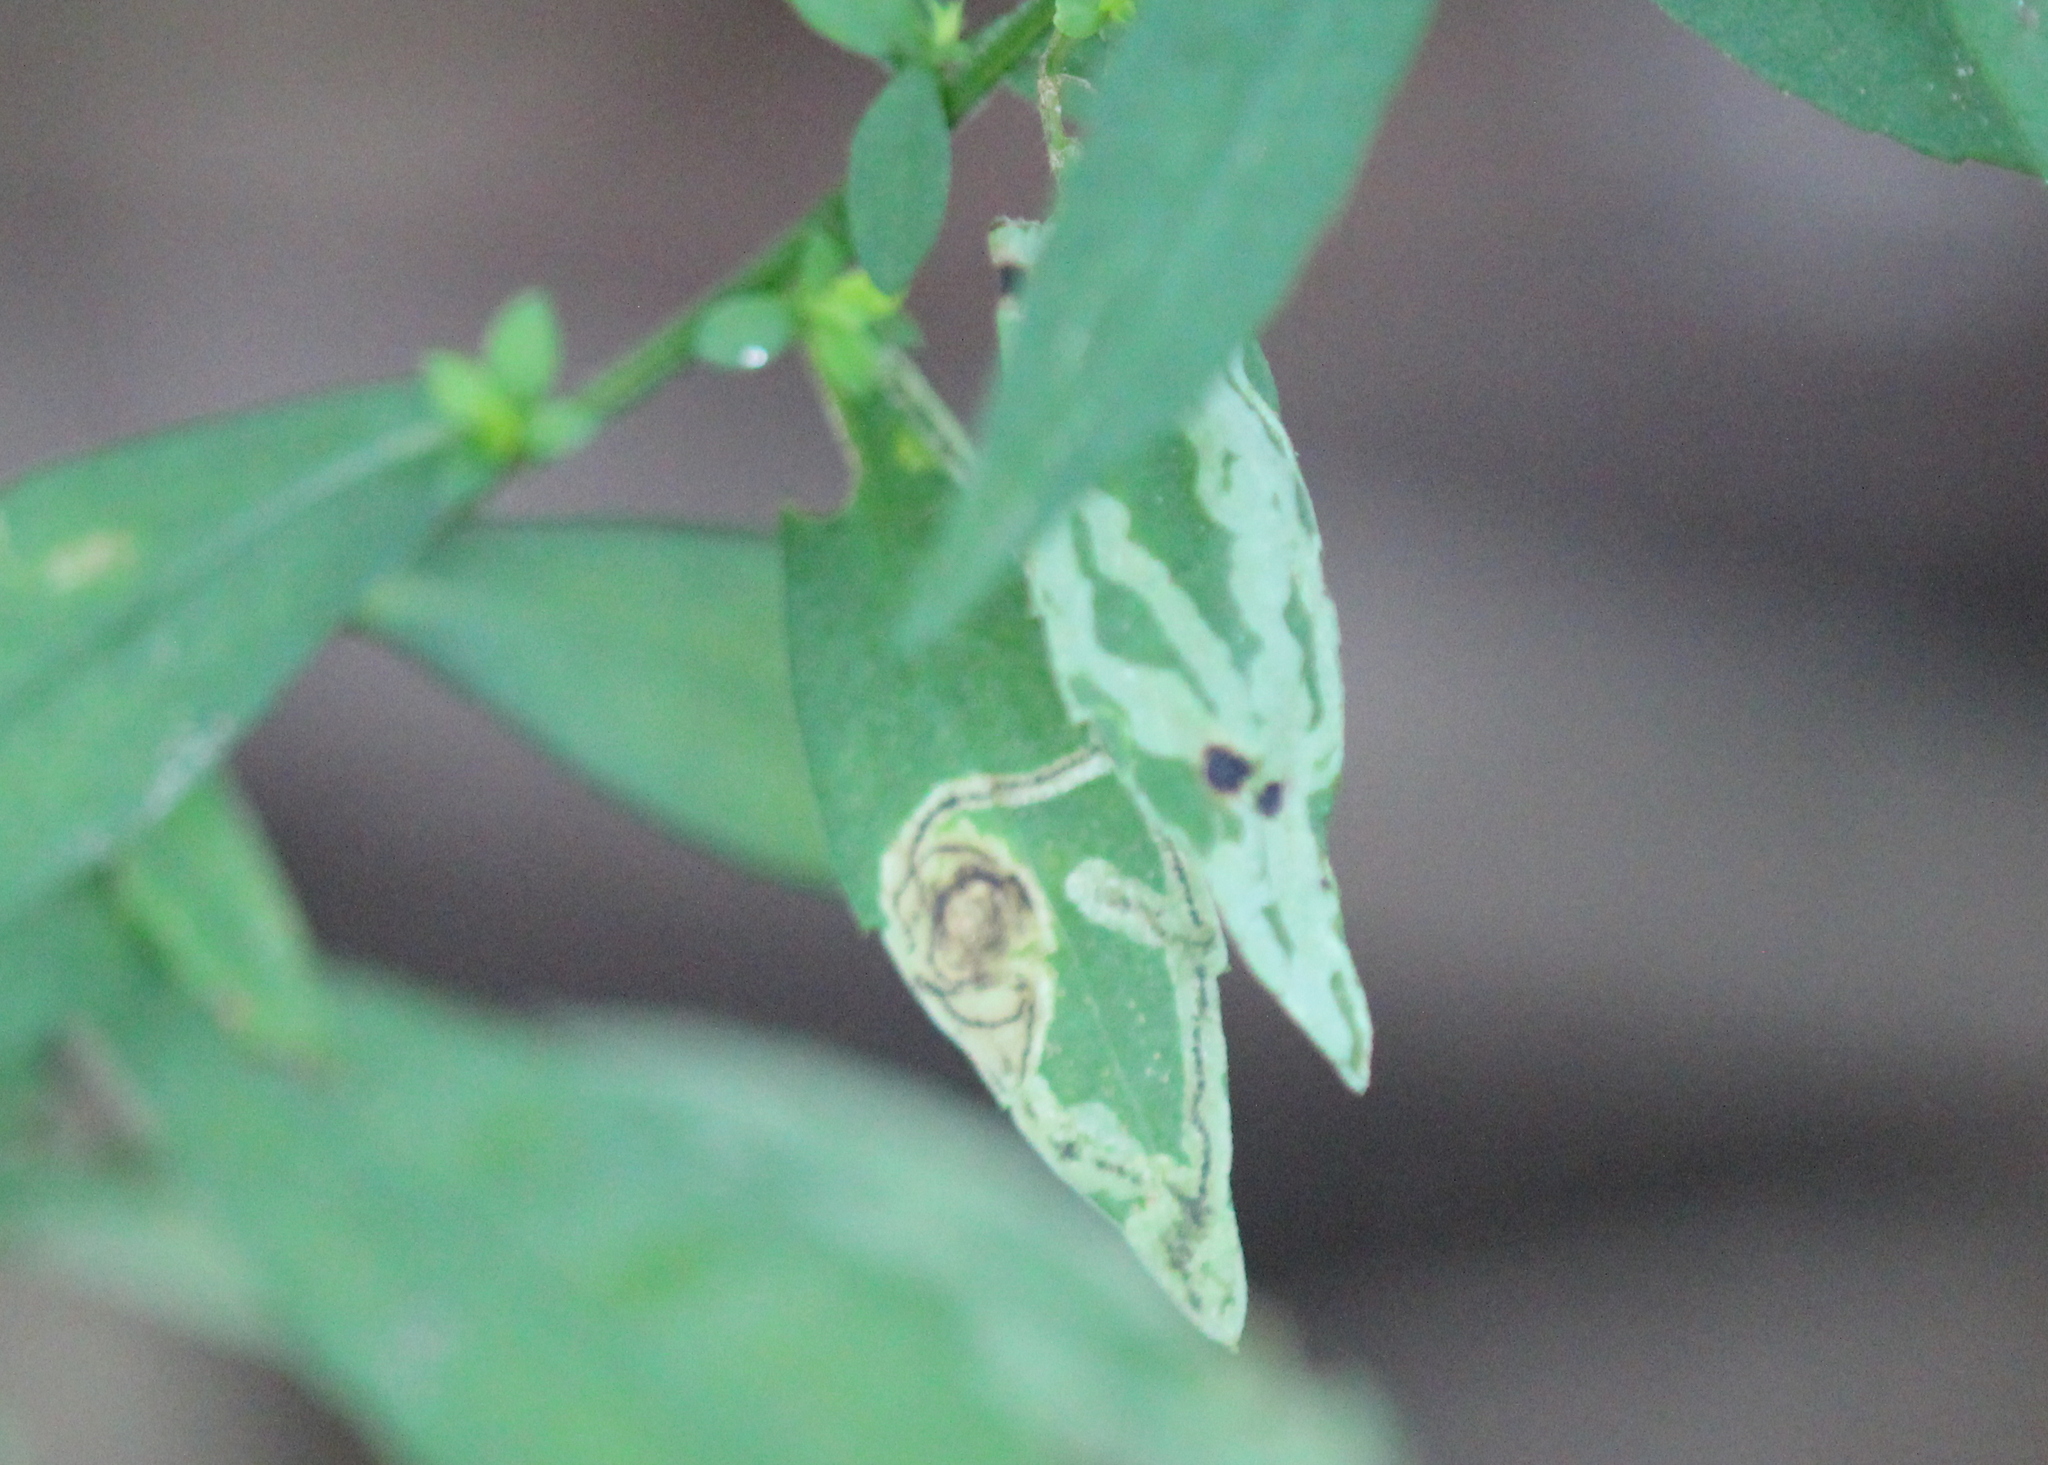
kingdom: Animalia
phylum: Arthropoda
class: Insecta
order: Diptera
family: Agromyzidae
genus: Liriomyza
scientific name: Liriomyza eupatorii
